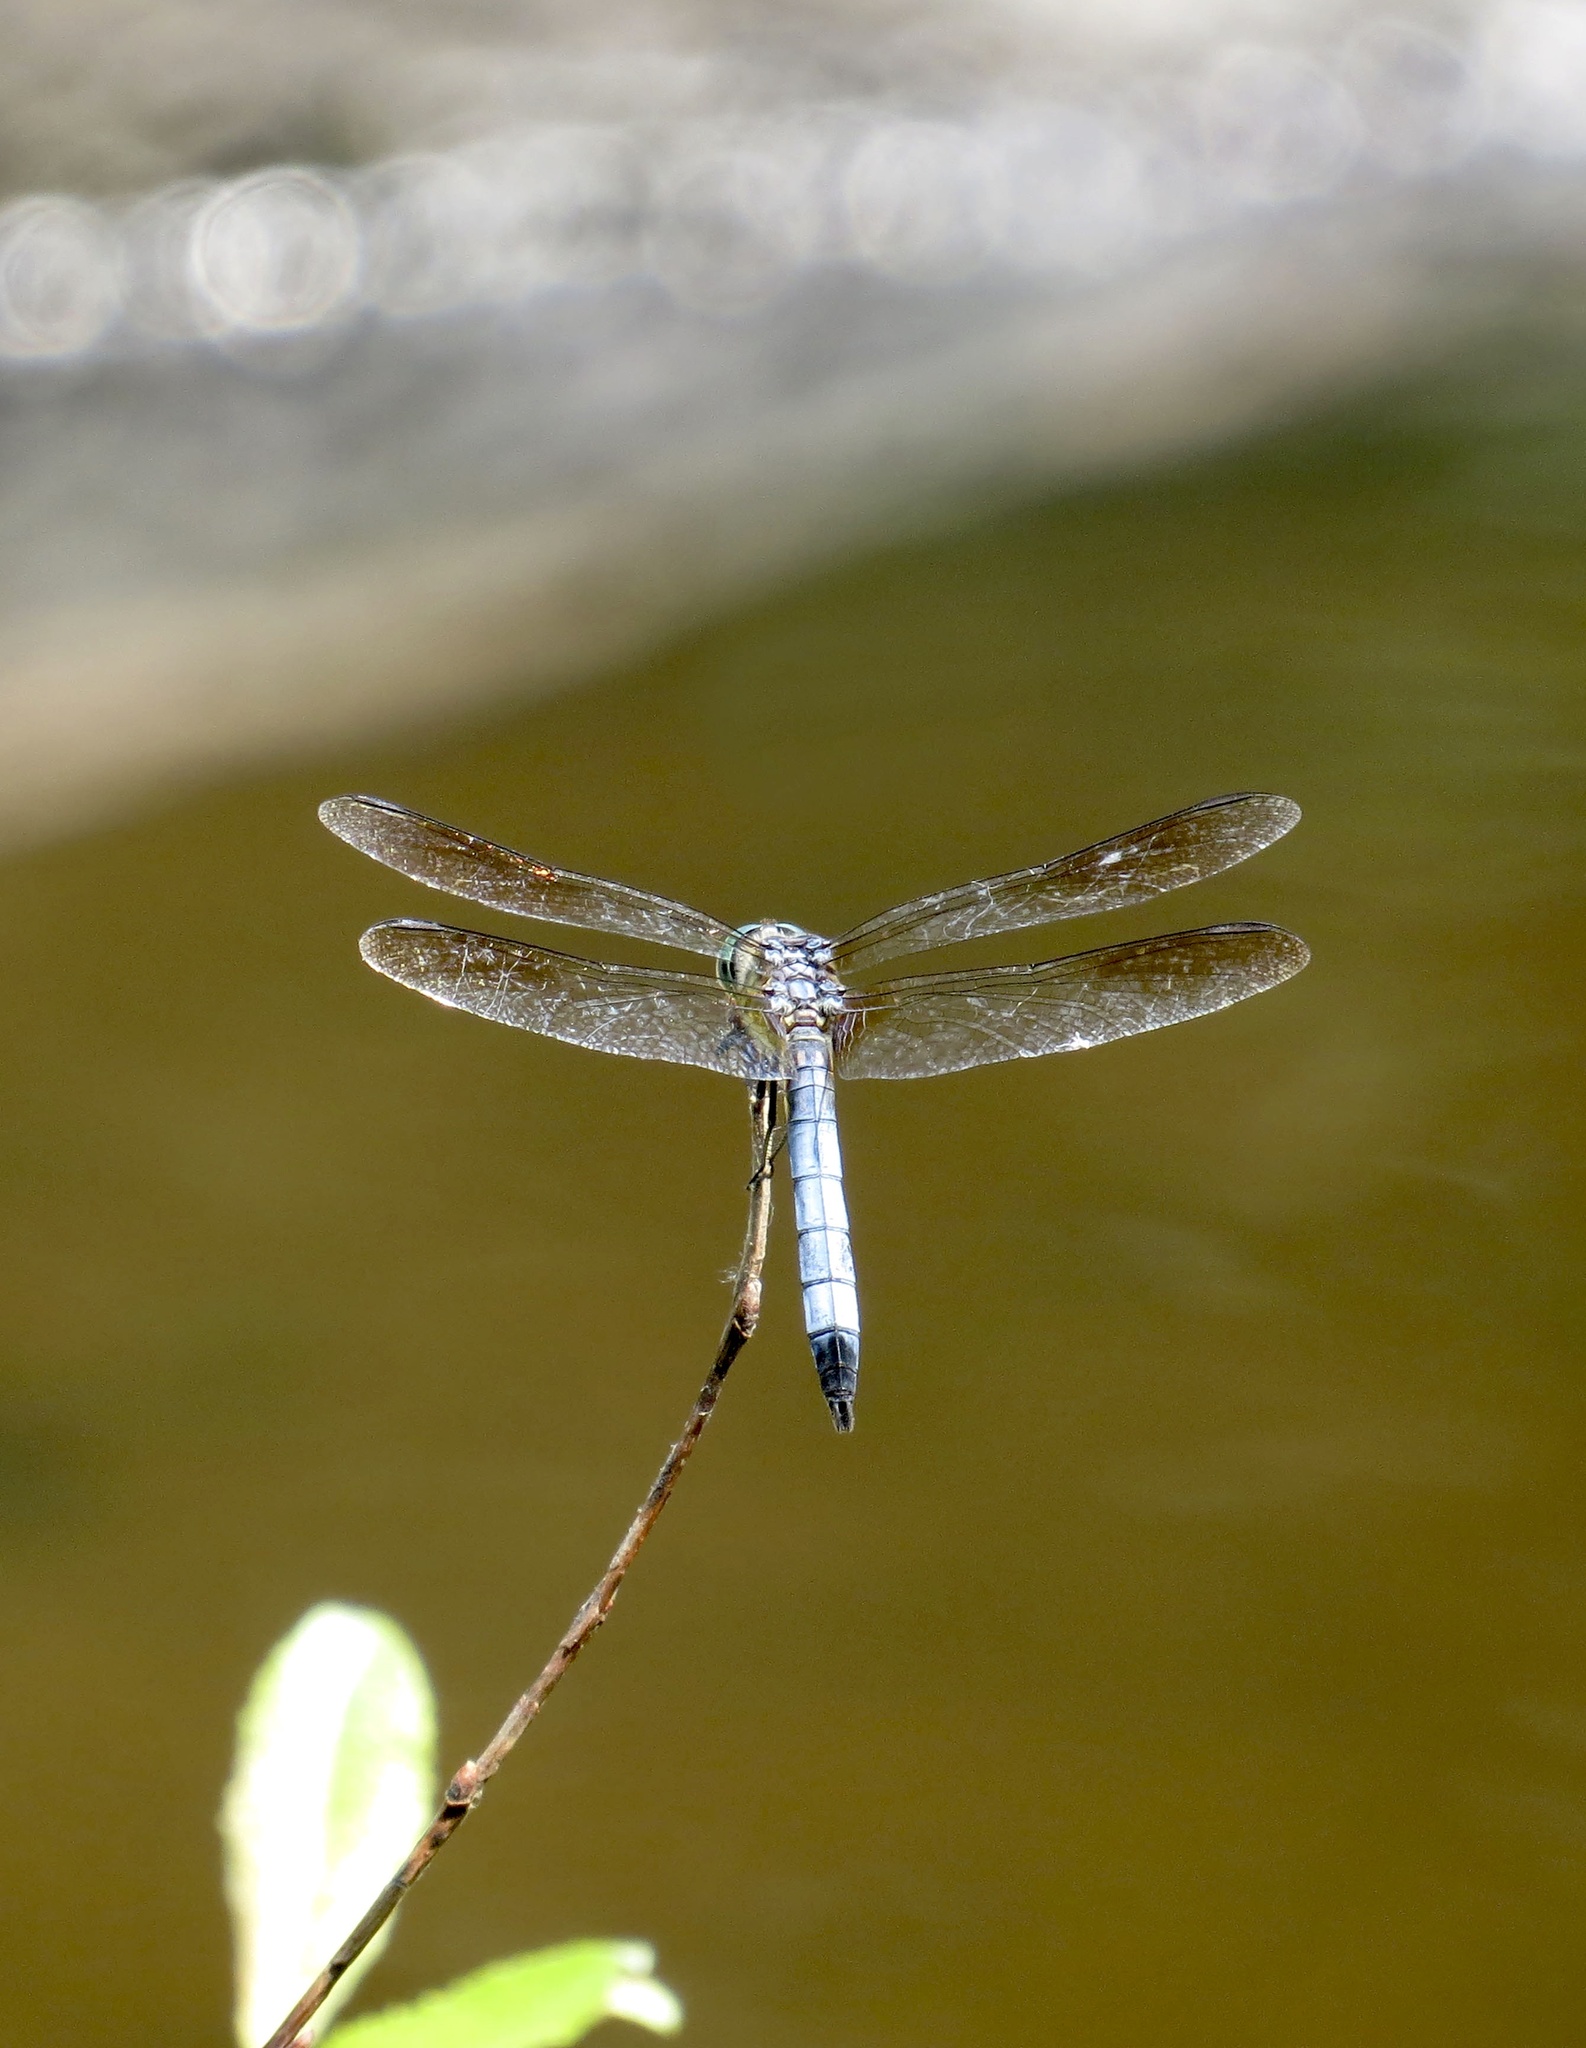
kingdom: Animalia
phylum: Arthropoda
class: Insecta
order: Odonata
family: Libellulidae
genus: Pachydiplax
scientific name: Pachydiplax longipennis
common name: Blue dasher
